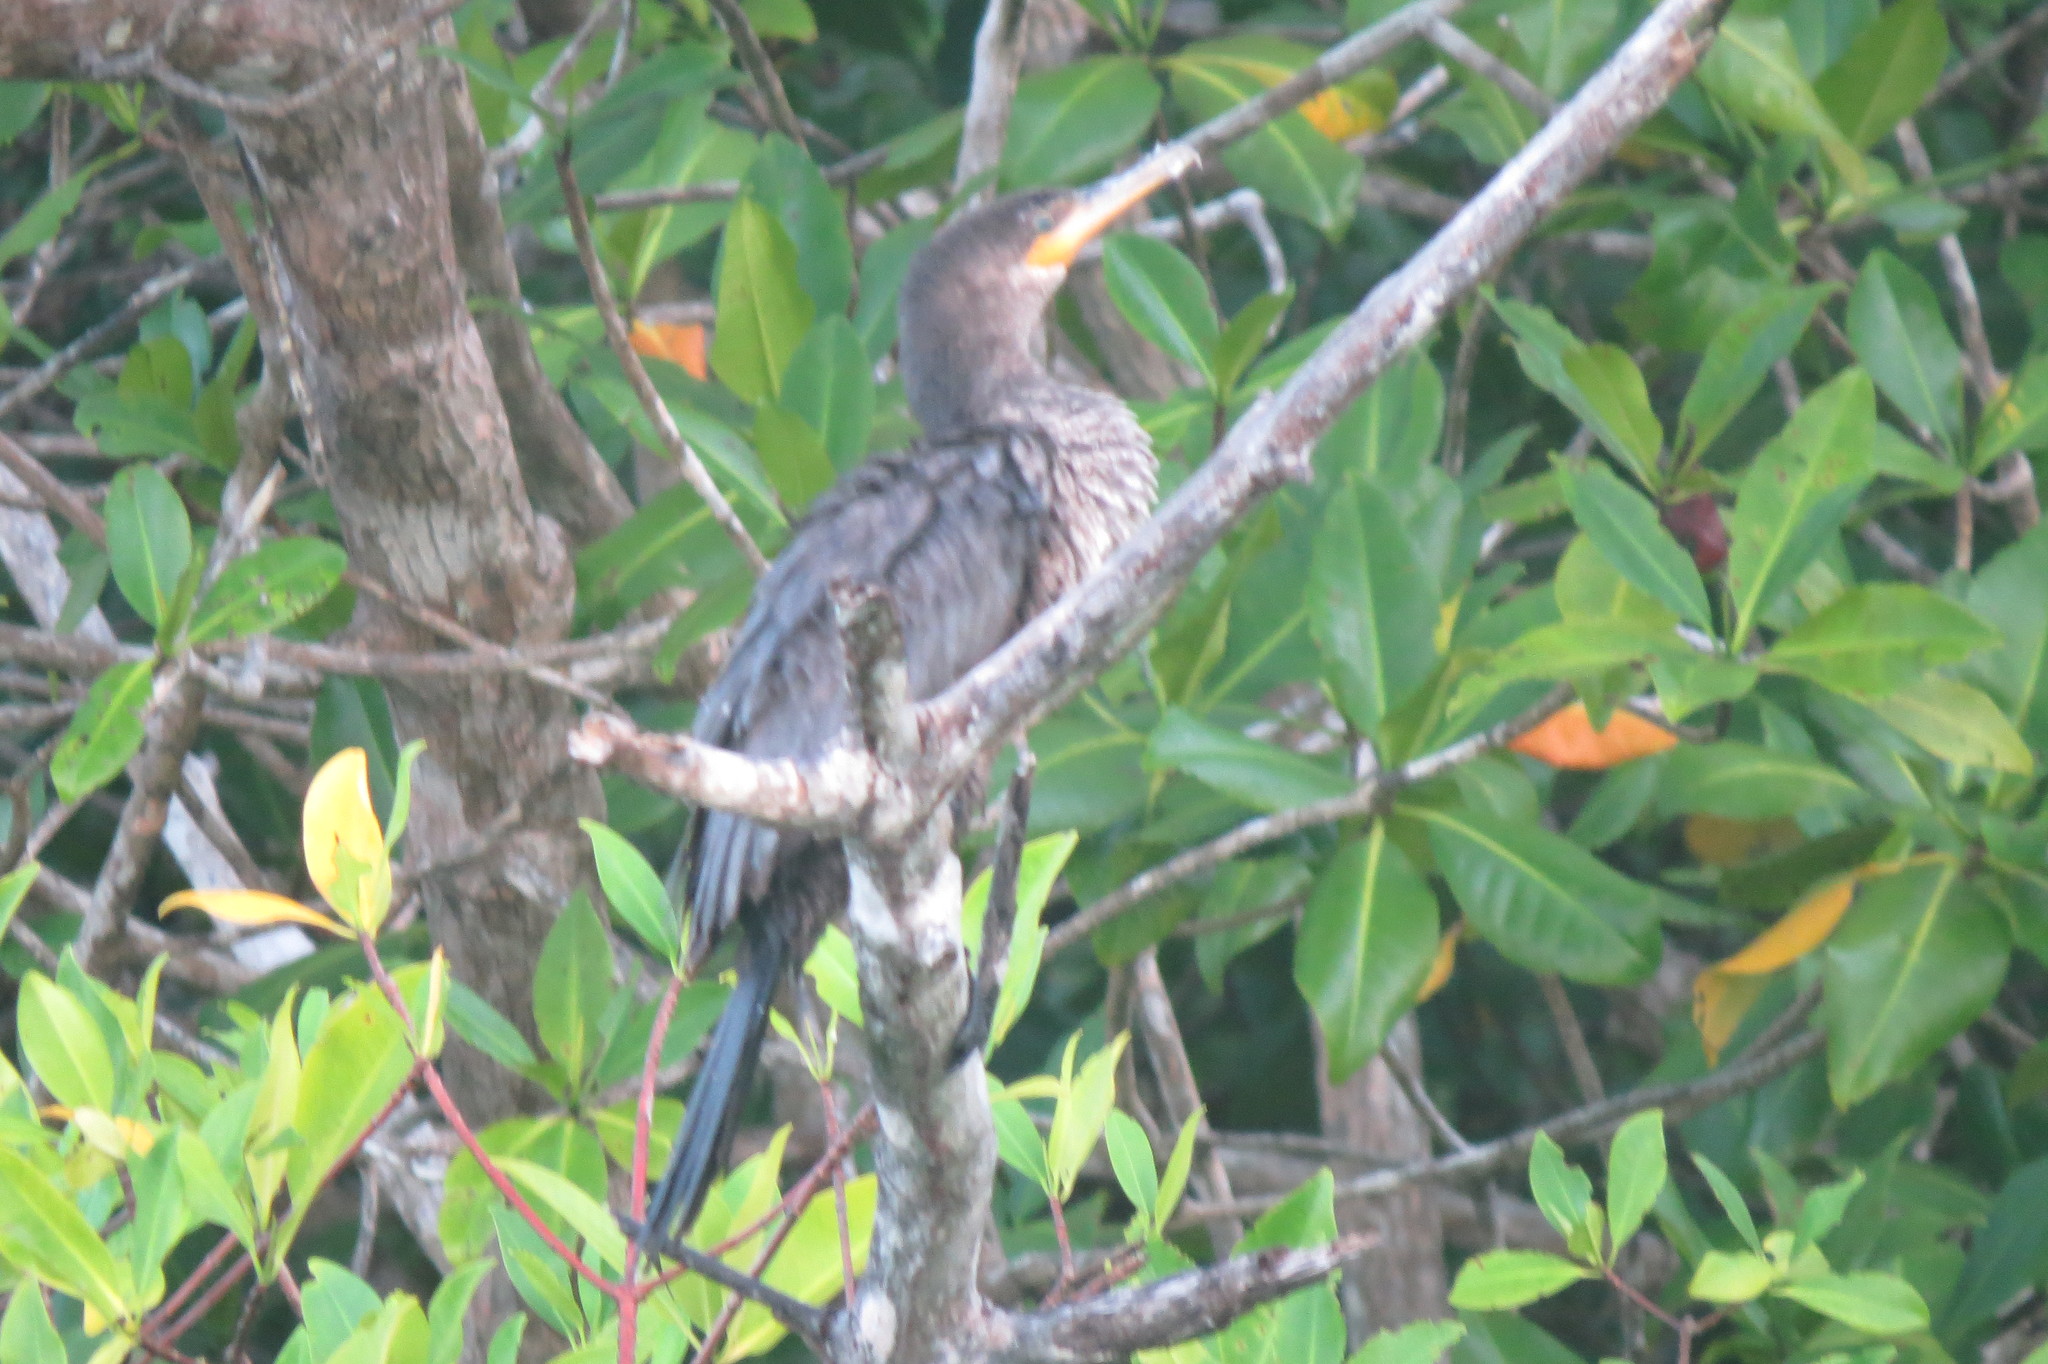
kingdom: Animalia
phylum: Chordata
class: Aves
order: Suliformes
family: Phalacrocoracidae
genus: Phalacrocorax
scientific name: Phalacrocorax brasilianus
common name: Neotropic cormorant
